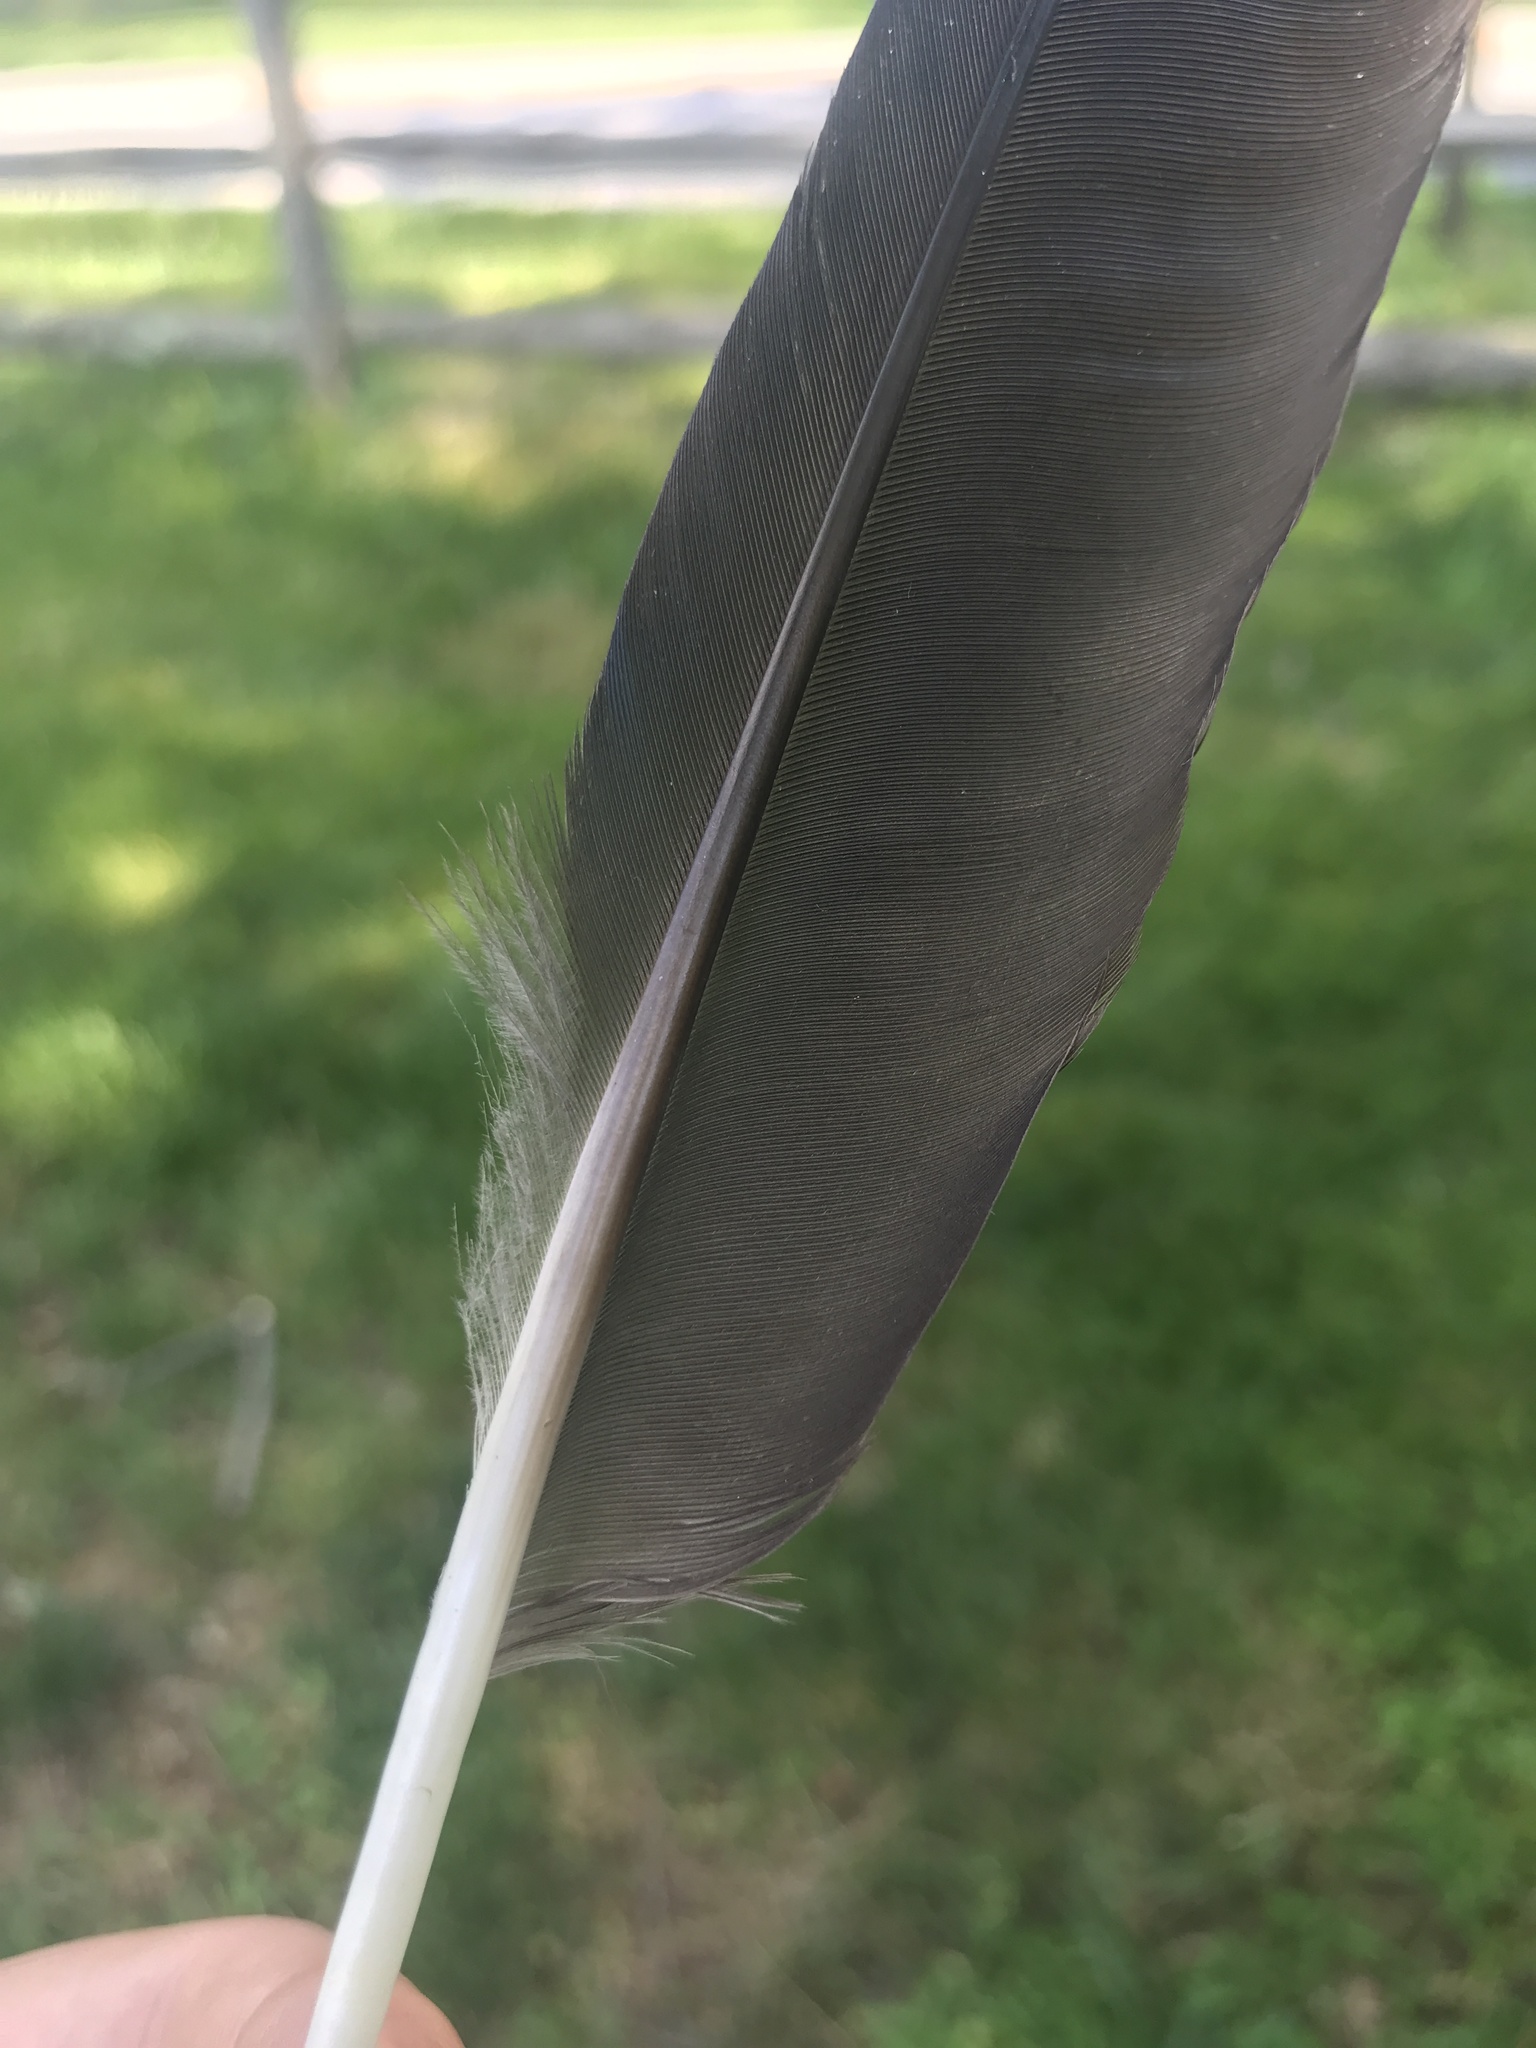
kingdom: Animalia
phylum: Chordata
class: Aves
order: Passeriformes
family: Corvidae
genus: Corvus
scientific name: Corvus
